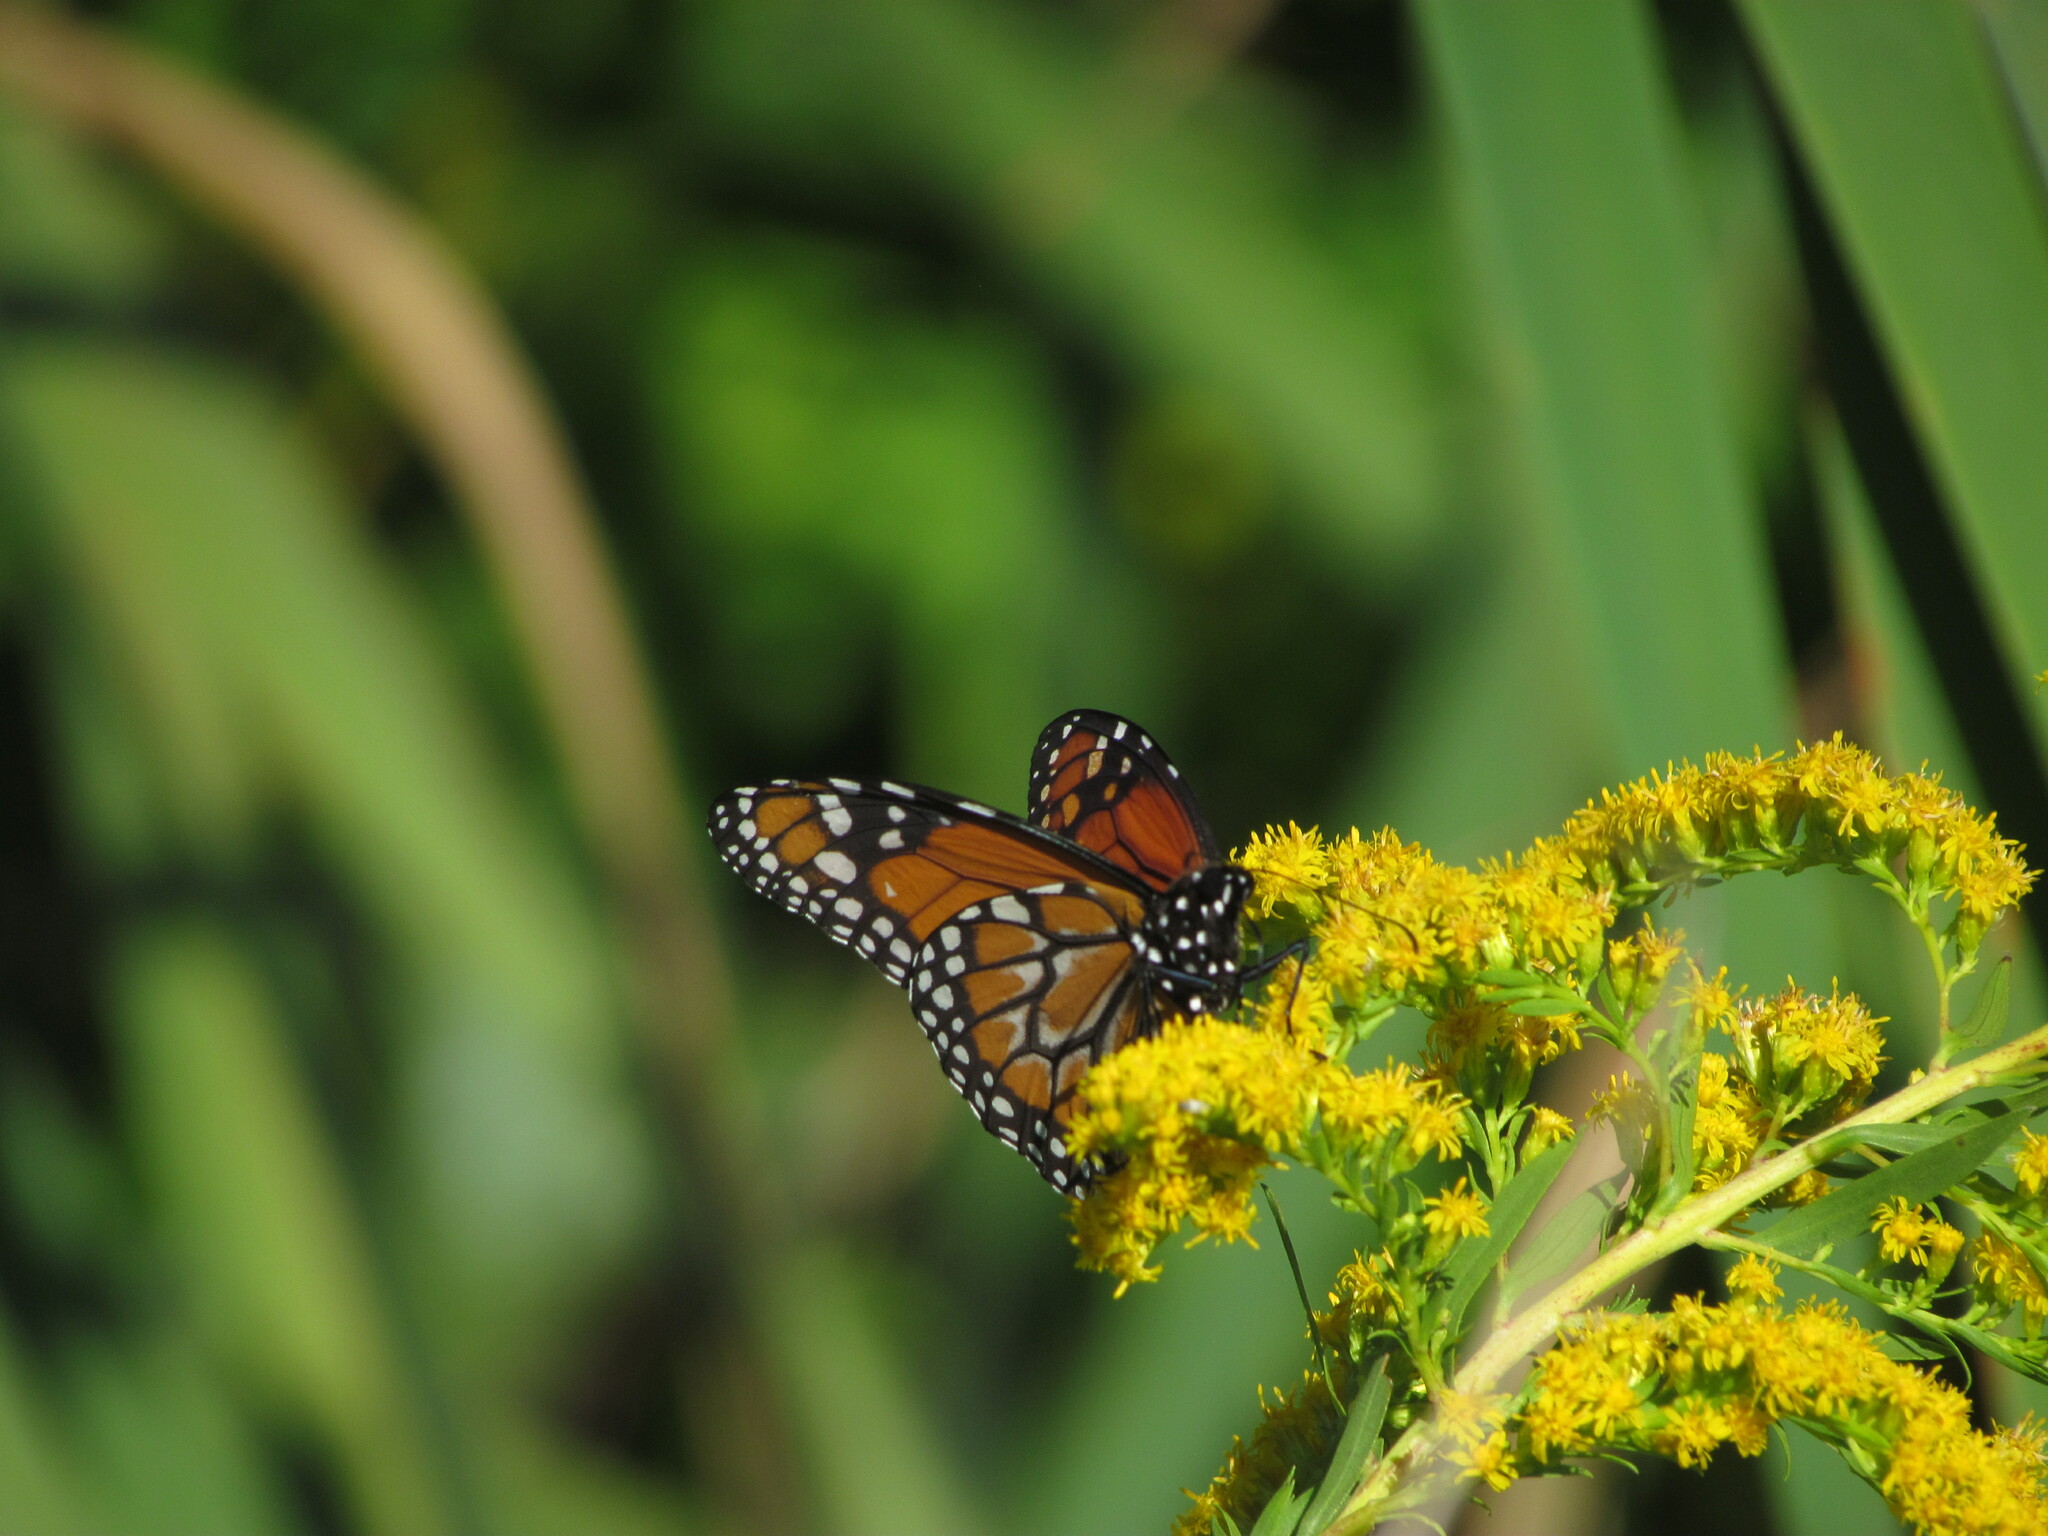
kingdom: Animalia
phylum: Arthropoda
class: Insecta
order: Lepidoptera
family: Nymphalidae
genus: Danaus
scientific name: Danaus erippus
